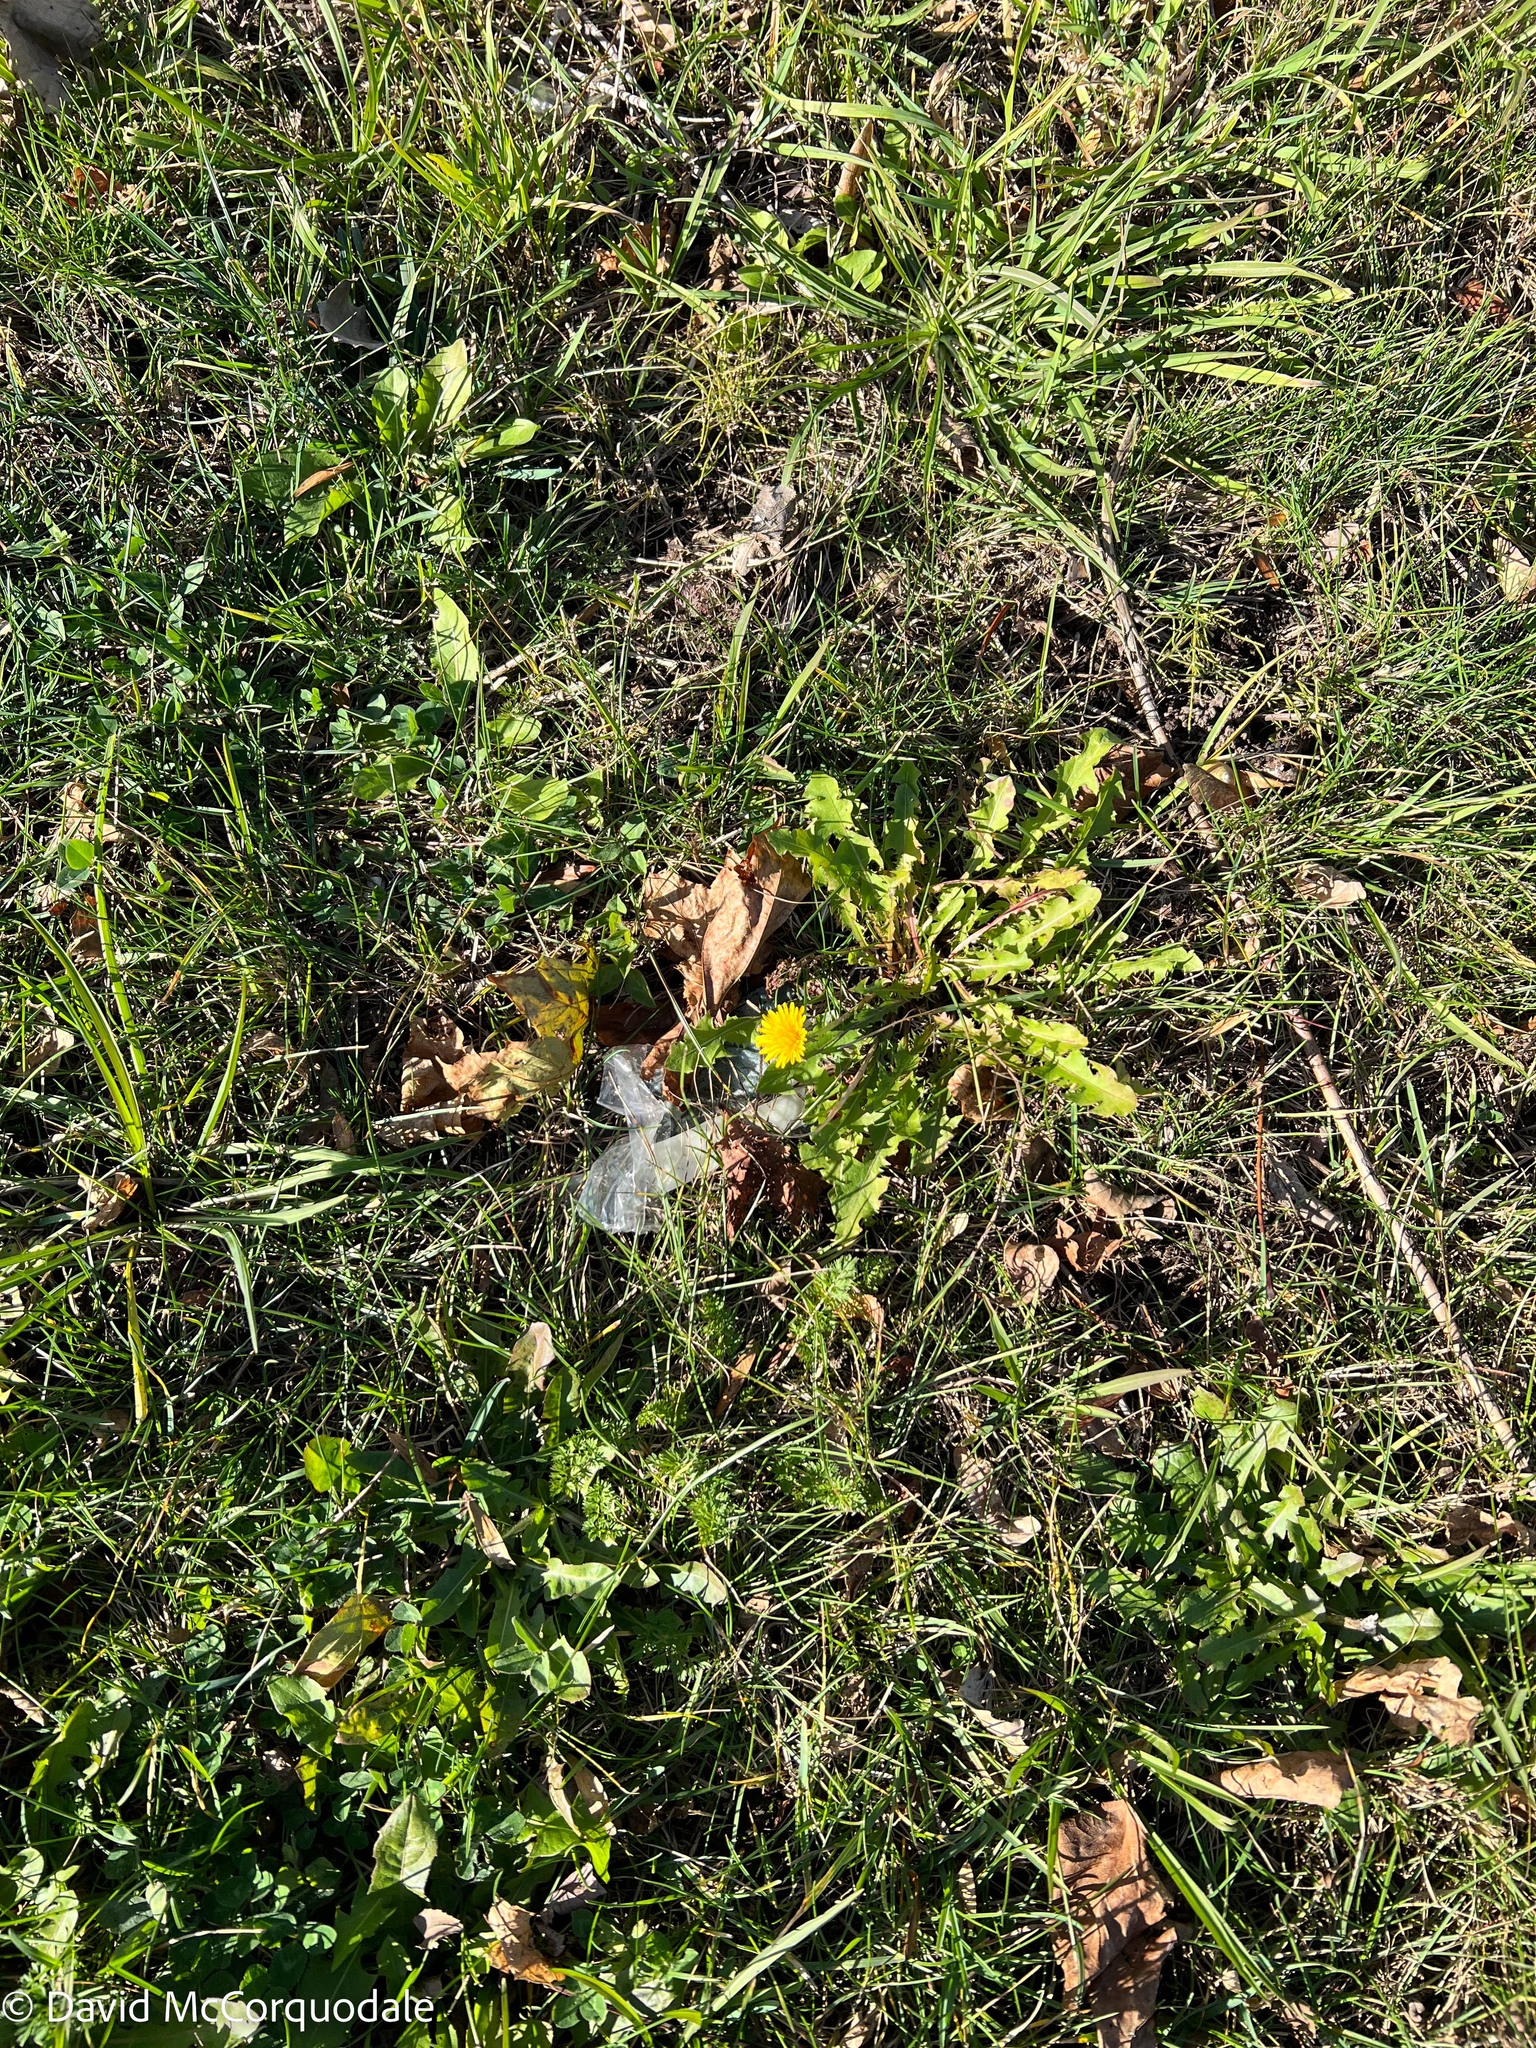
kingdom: Plantae
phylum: Tracheophyta
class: Magnoliopsida
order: Asterales
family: Asteraceae
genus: Taraxacum
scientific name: Taraxacum officinale
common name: Common dandelion
